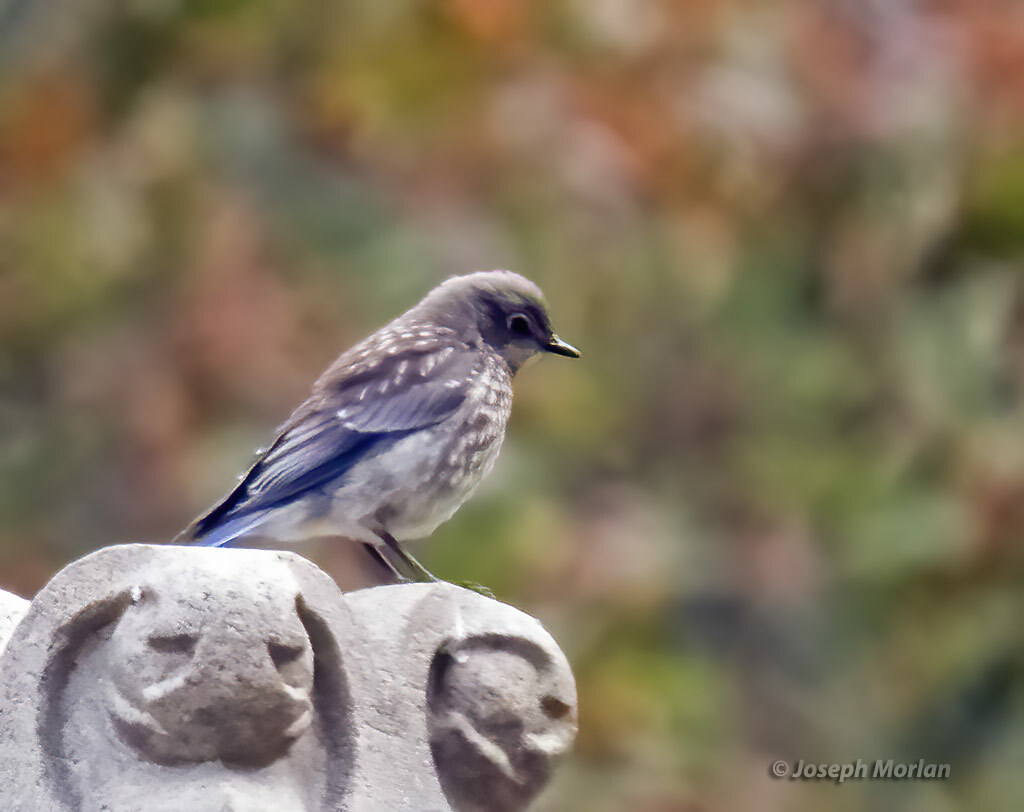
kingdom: Animalia
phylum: Chordata
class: Aves
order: Passeriformes
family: Turdidae
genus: Sialia
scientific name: Sialia mexicana
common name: Western bluebird
